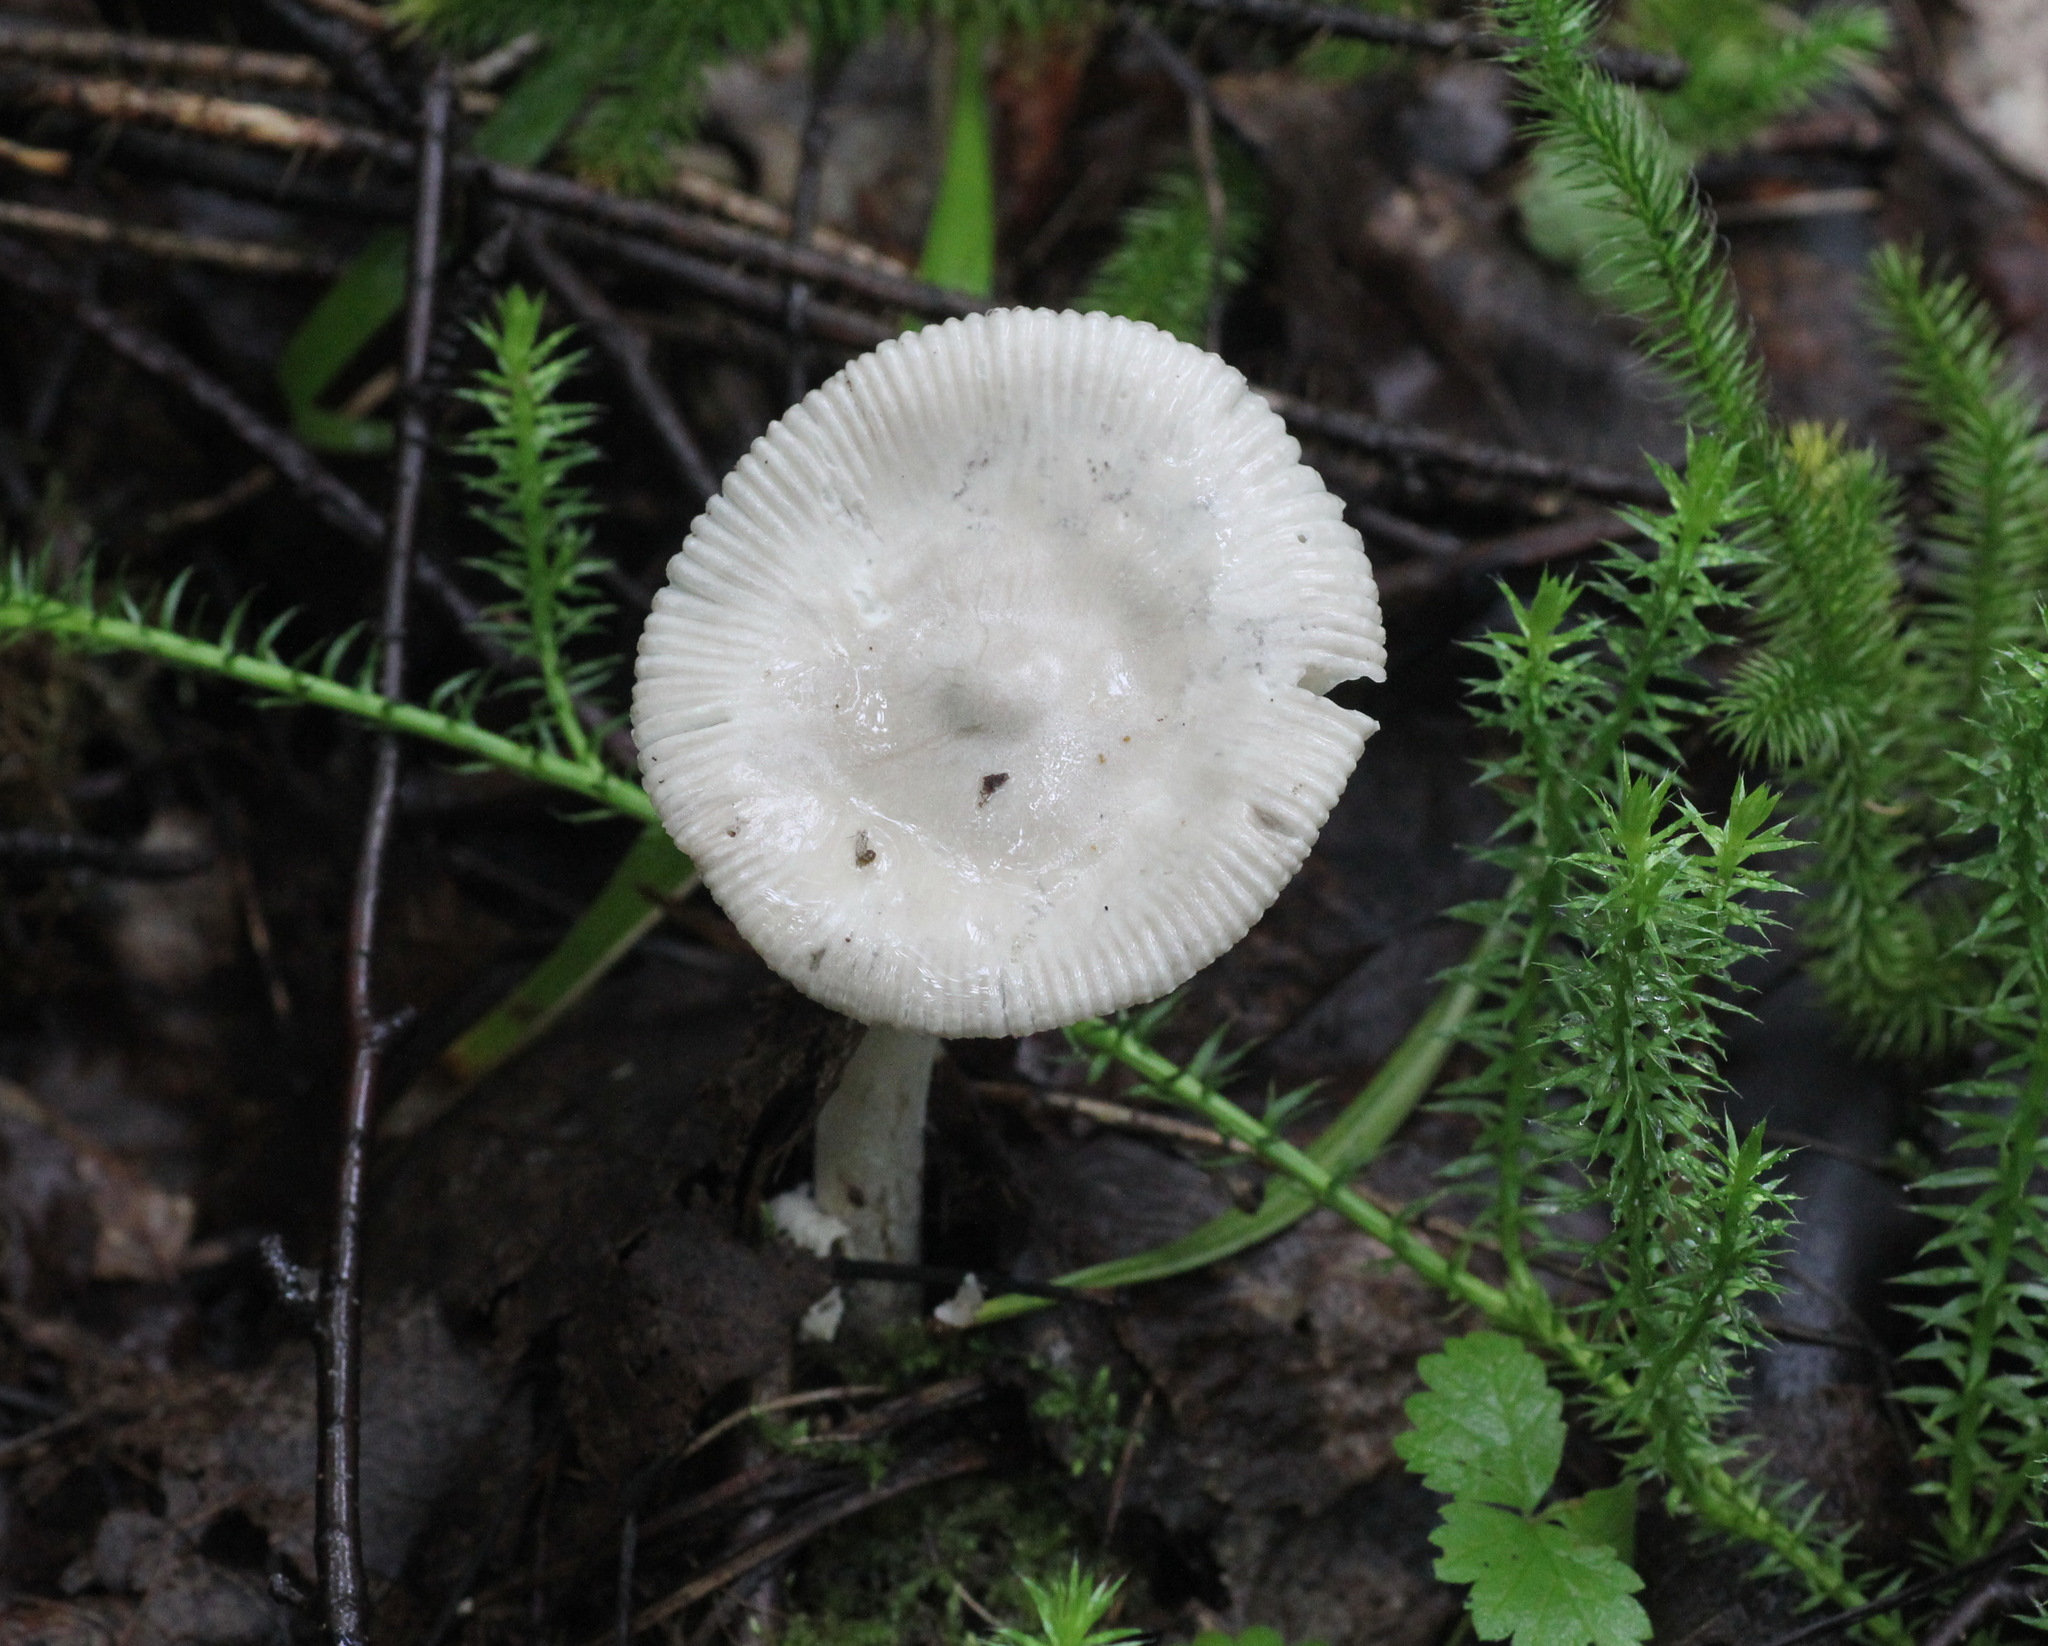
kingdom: Fungi
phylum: Basidiomycota
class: Agaricomycetes
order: Agaricales
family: Amanitaceae
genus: Amanita
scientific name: Amanita vaginata
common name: Grisette
